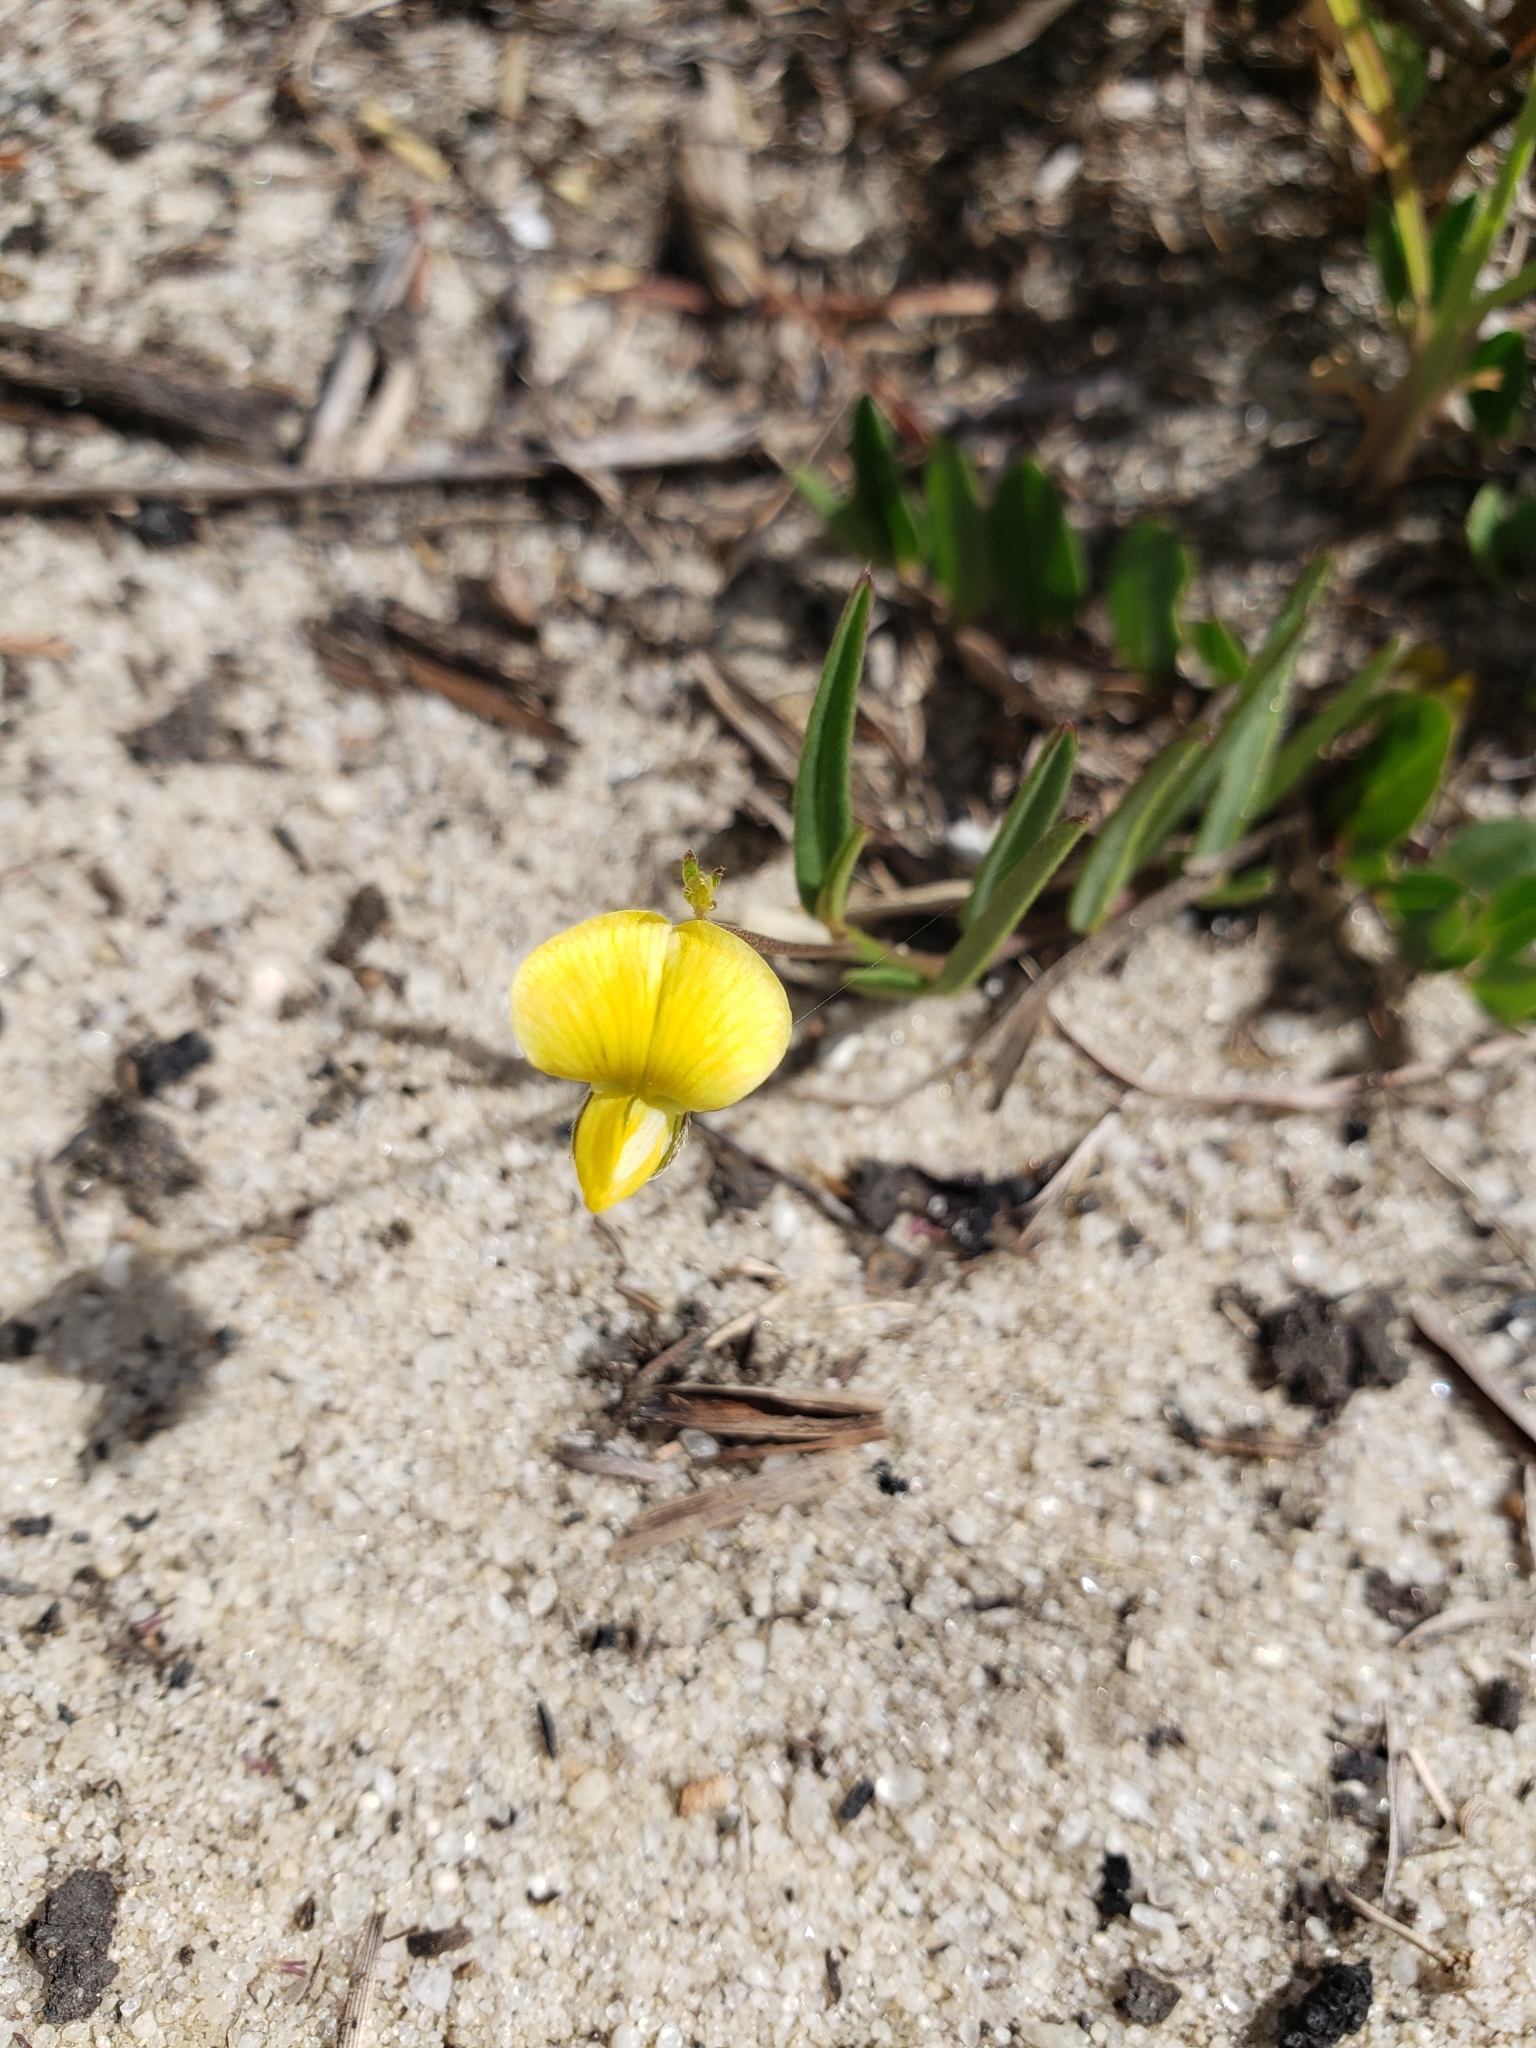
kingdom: Plantae
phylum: Tracheophyta
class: Magnoliopsida
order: Fabales
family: Fabaceae
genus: Crotalaria
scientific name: Crotalaria rotundifolia
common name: Prostrate rattlebox
